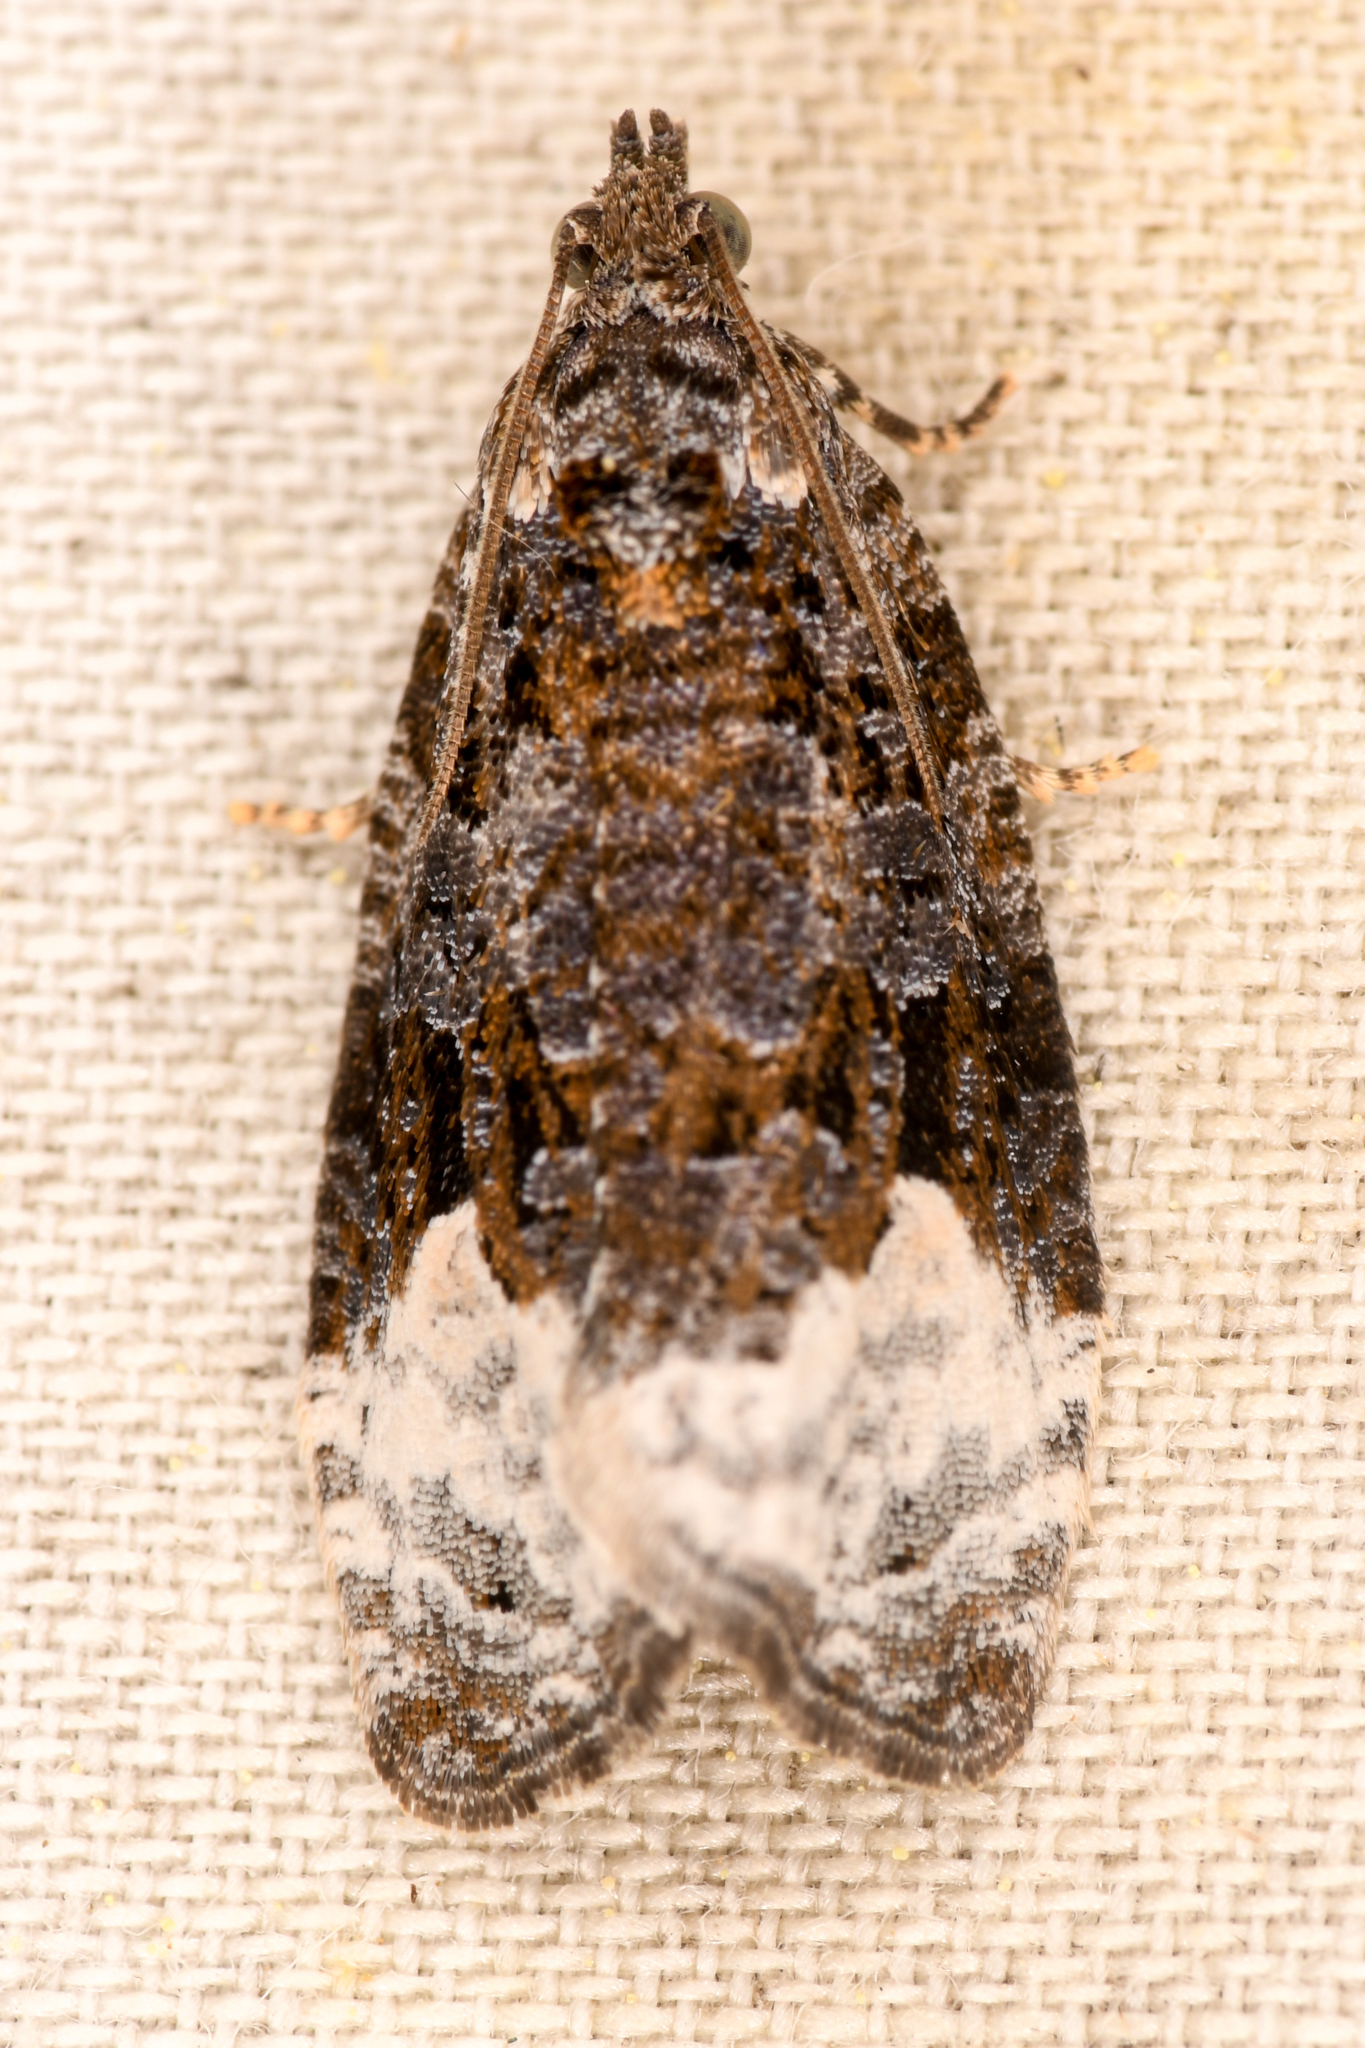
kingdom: Animalia
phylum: Arthropoda
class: Insecta
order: Lepidoptera
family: Tortricidae
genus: Apotomis
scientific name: Apotomis capreana
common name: Sallow marble
